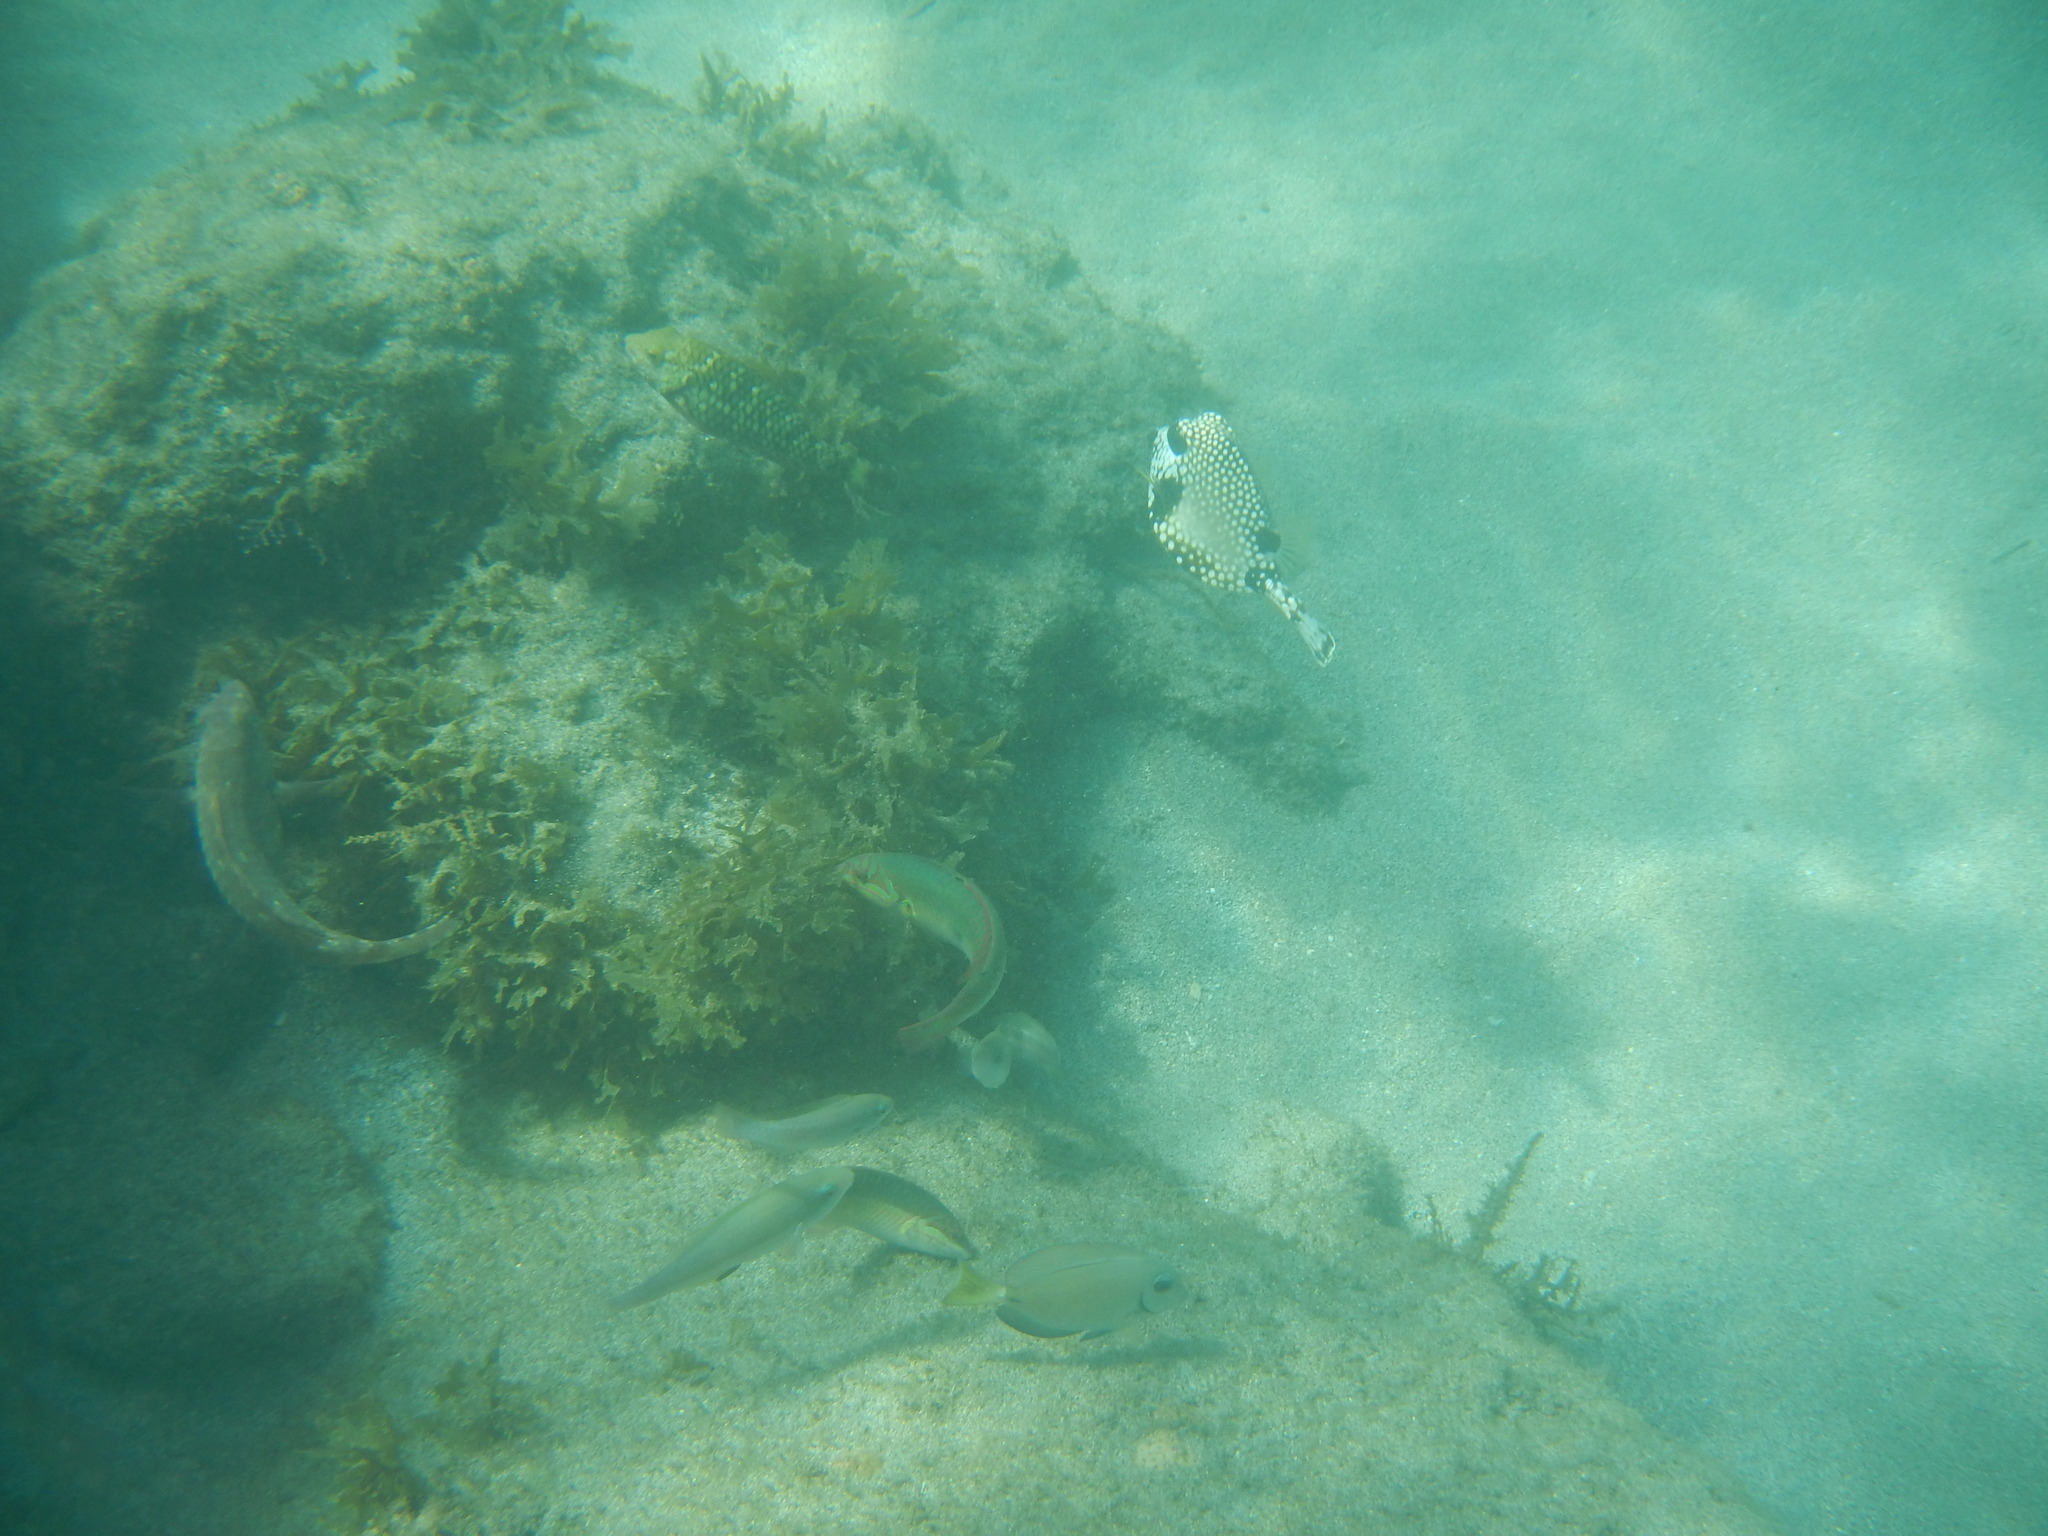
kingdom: Animalia
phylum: Chordata
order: Tetraodontiformes
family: Ostraciidae
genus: Lactophrys
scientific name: Lactophrys triqueter
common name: Smooth trunkfish
